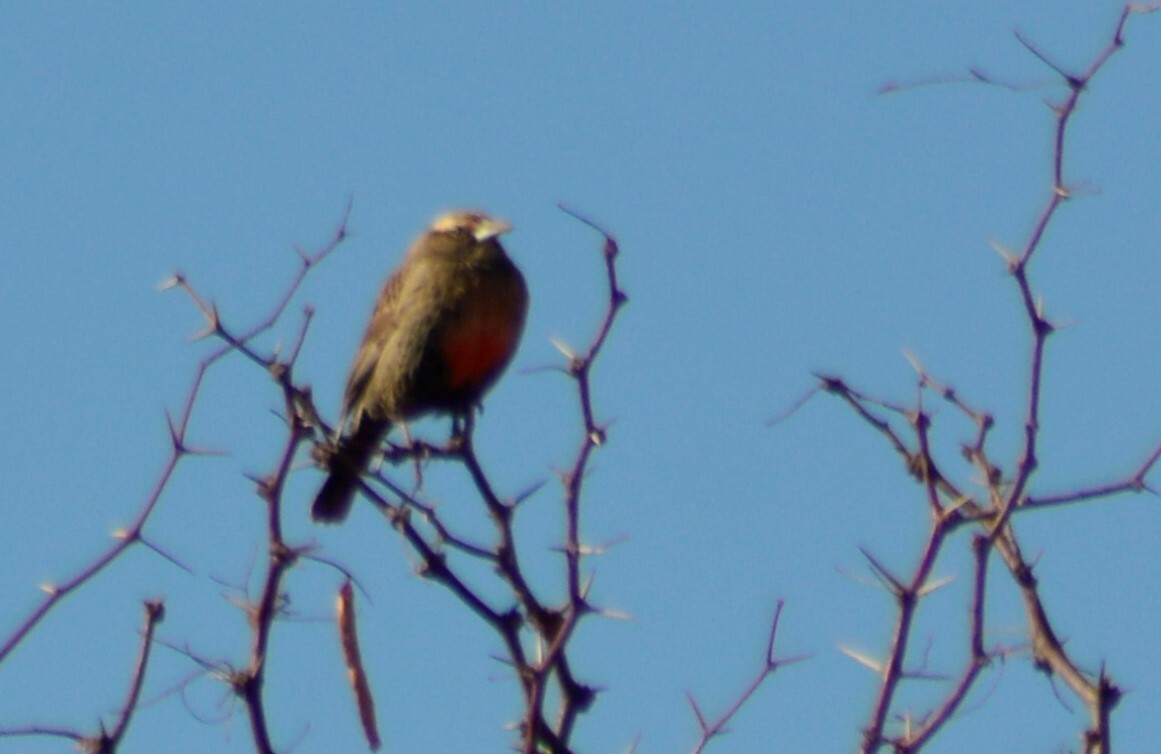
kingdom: Animalia
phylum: Chordata
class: Aves
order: Passeriformes
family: Icteridae
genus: Sturnella
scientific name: Sturnella loyca
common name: Long-tailed meadowlark
